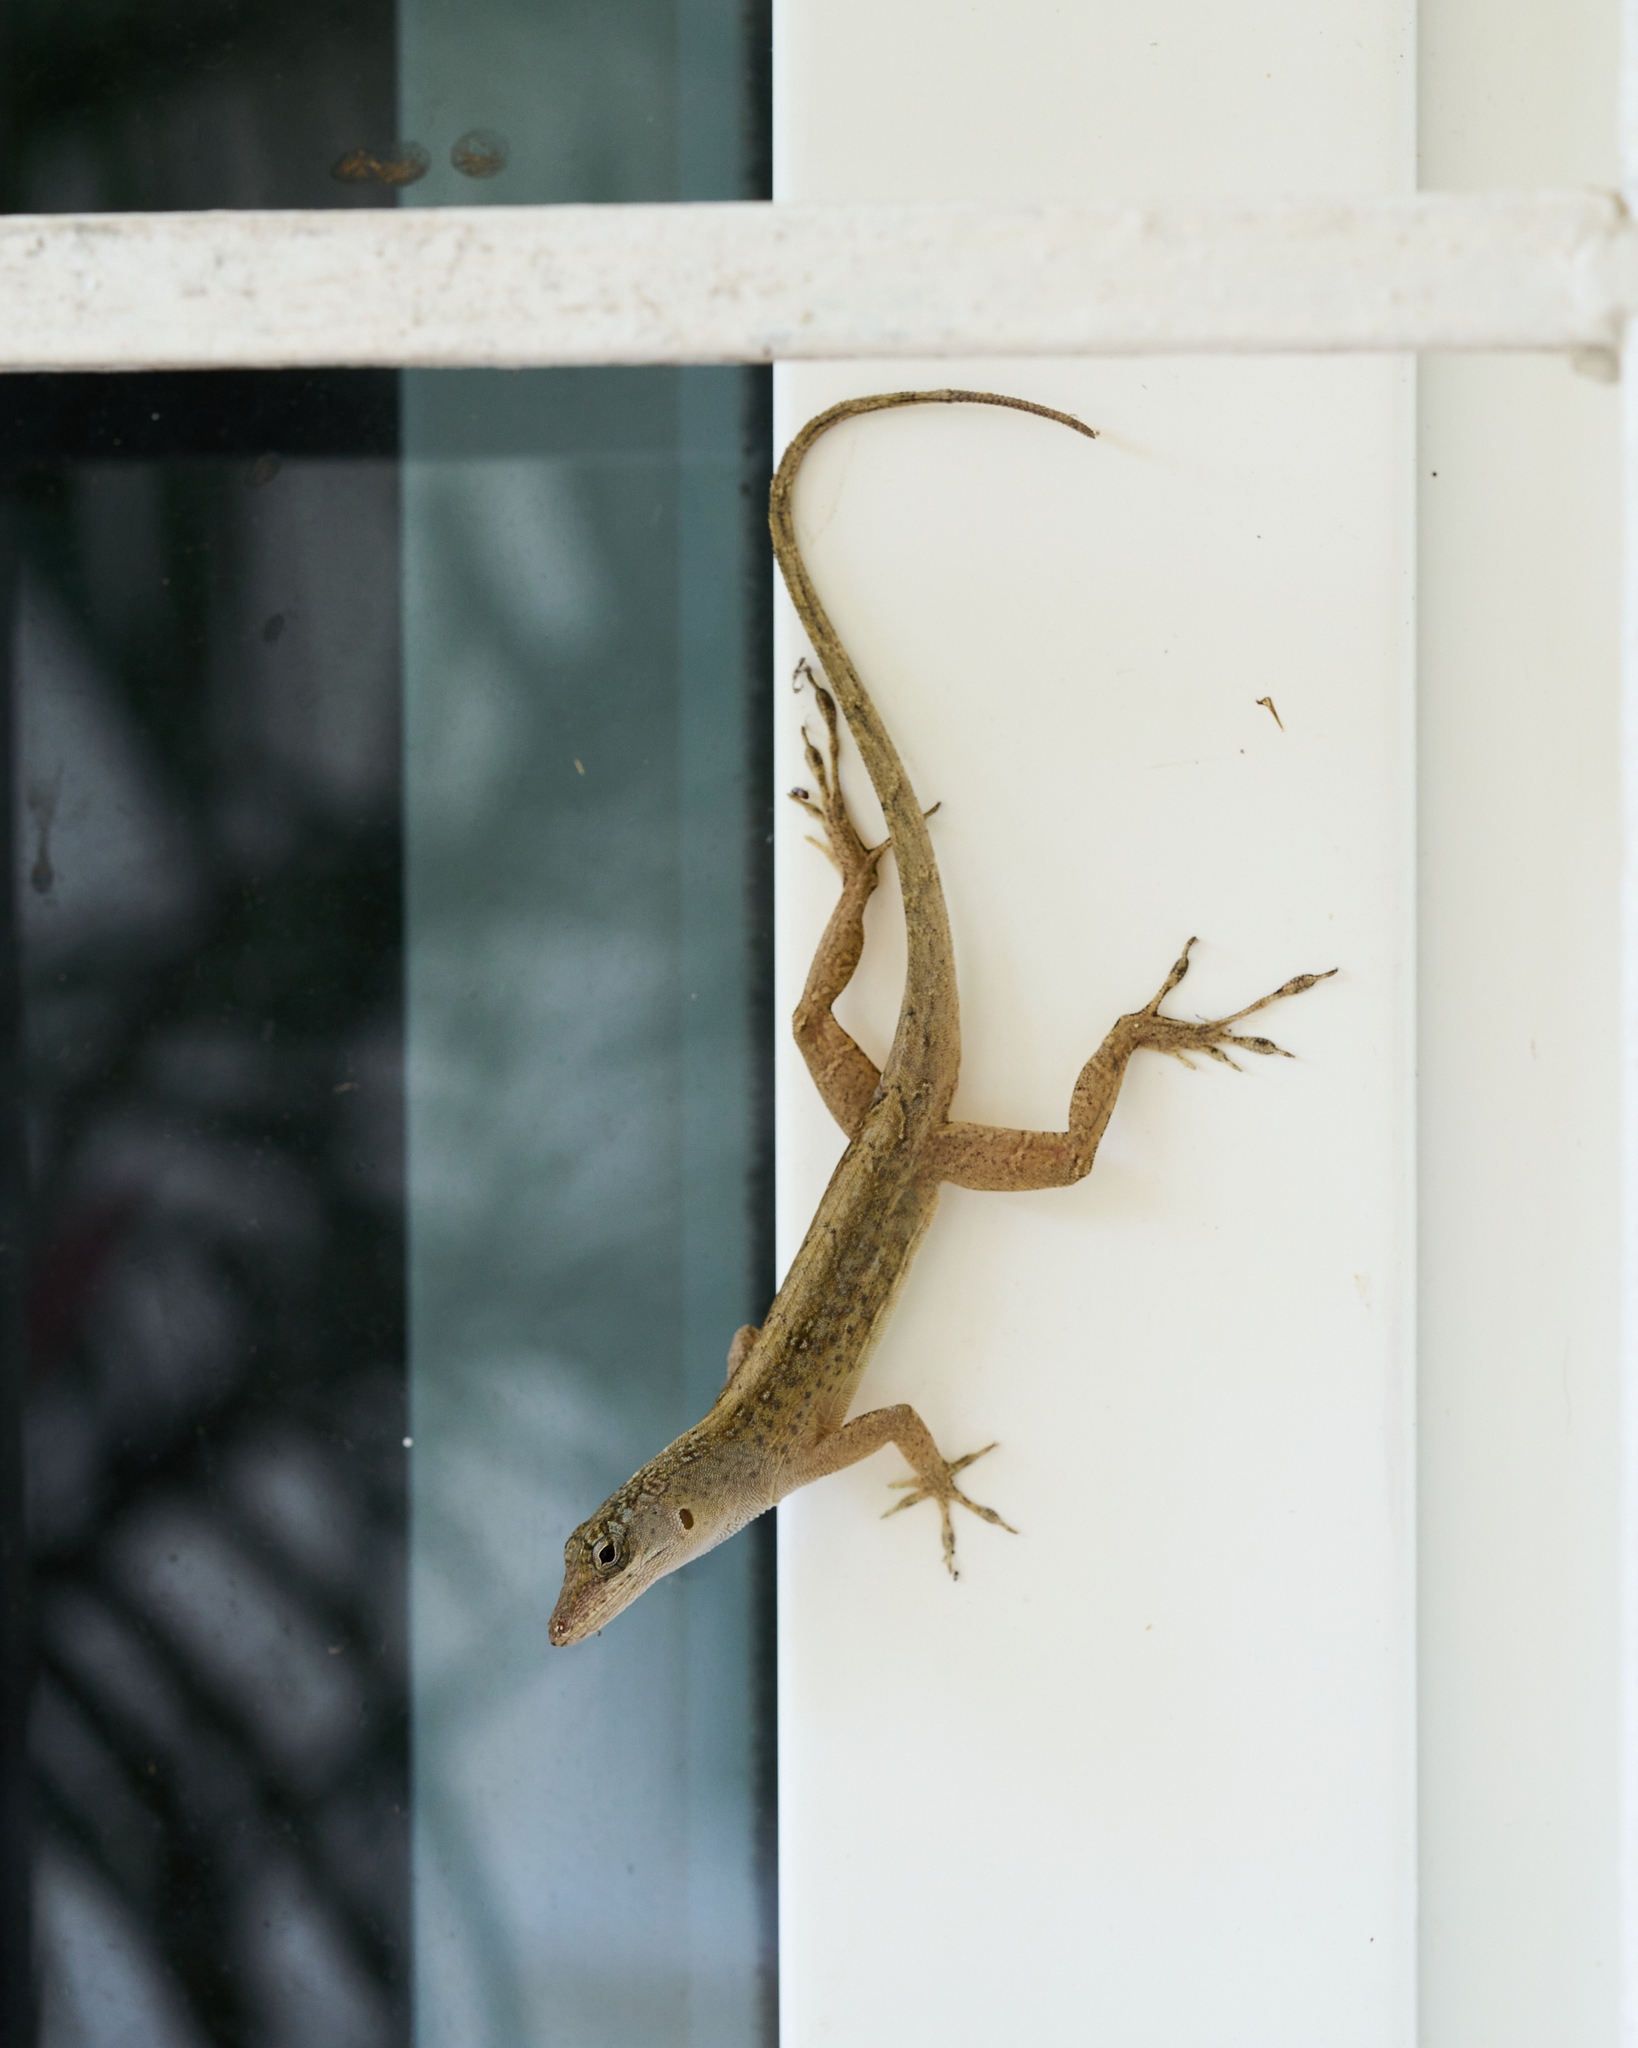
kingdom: Animalia
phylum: Chordata
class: Squamata
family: Dactyloidae
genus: Anolis
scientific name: Anolis sagrei
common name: Brown anole
